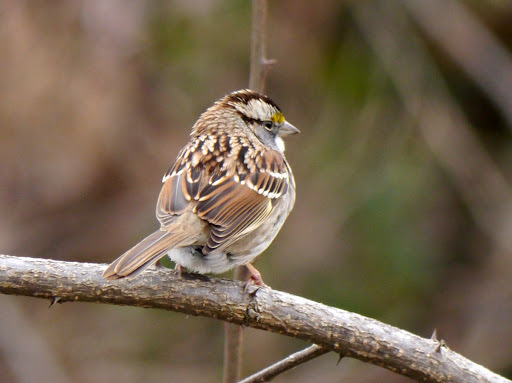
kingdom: Animalia
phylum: Chordata
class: Aves
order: Passeriformes
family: Passerellidae
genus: Zonotrichia
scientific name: Zonotrichia albicollis
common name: White-throated sparrow
